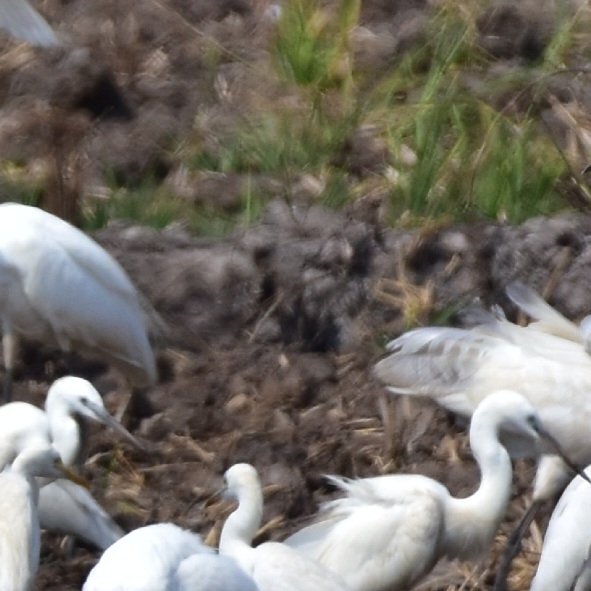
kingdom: Animalia
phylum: Chordata
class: Aves
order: Pelecaniformes
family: Ardeidae
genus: Egretta
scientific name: Egretta garzetta
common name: Little egret
